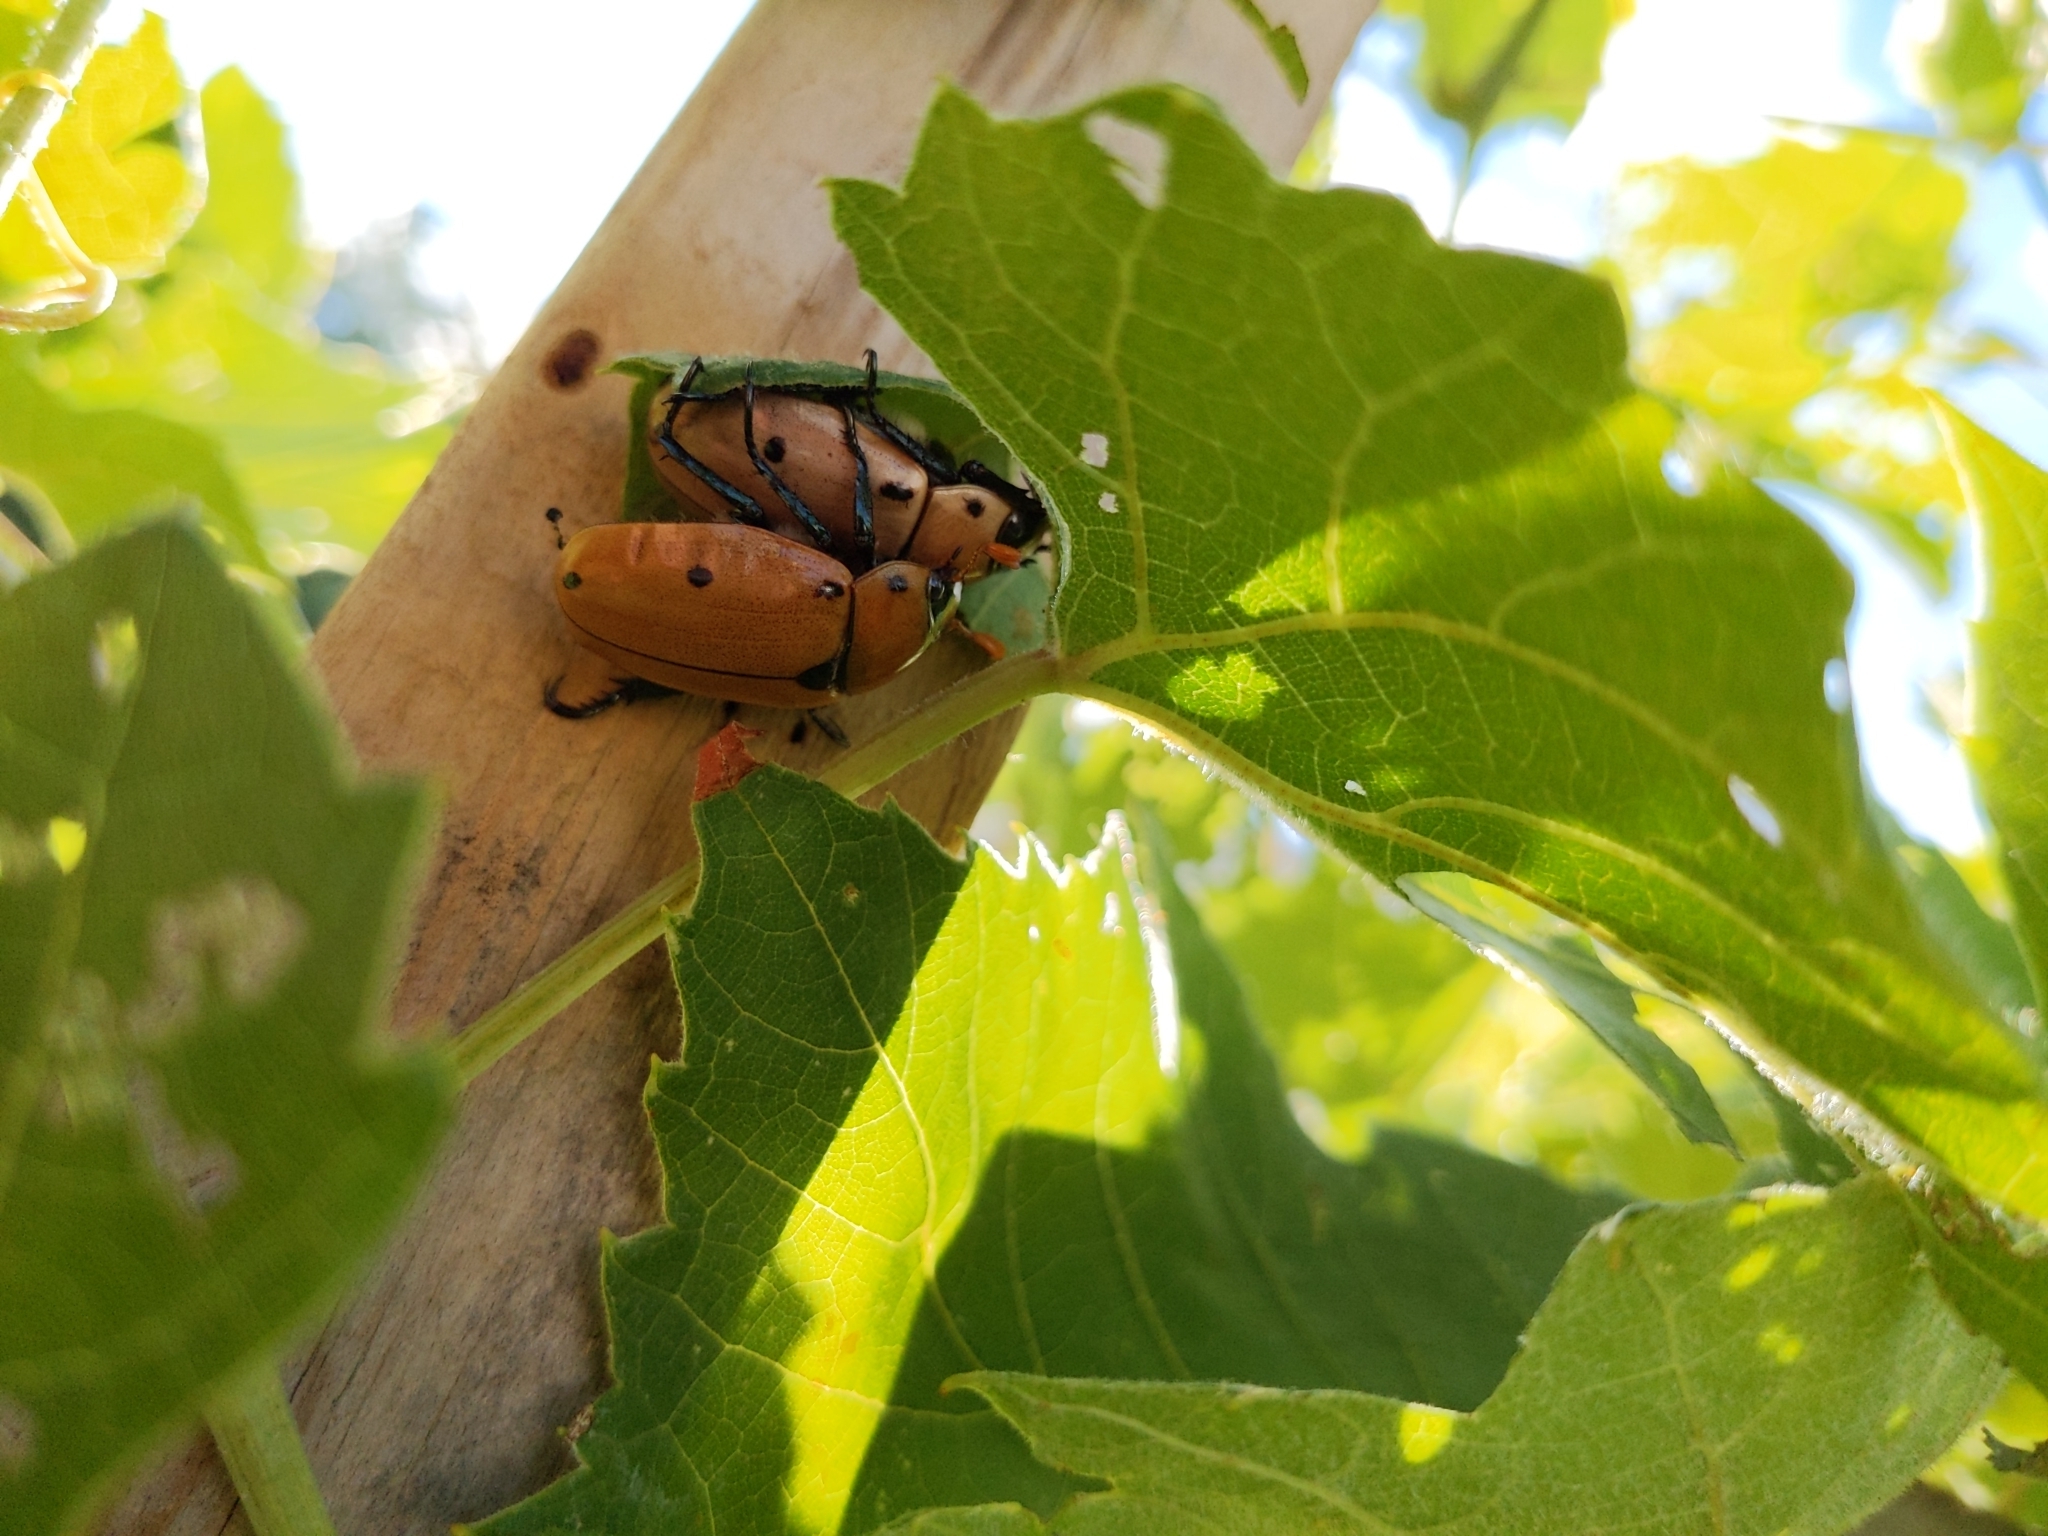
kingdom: Animalia
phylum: Arthropoda
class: Insecta
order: Coleoptera
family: Scarabaeidae
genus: Pelidnota
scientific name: Pelidnota punctata
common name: Grapevine beetle
